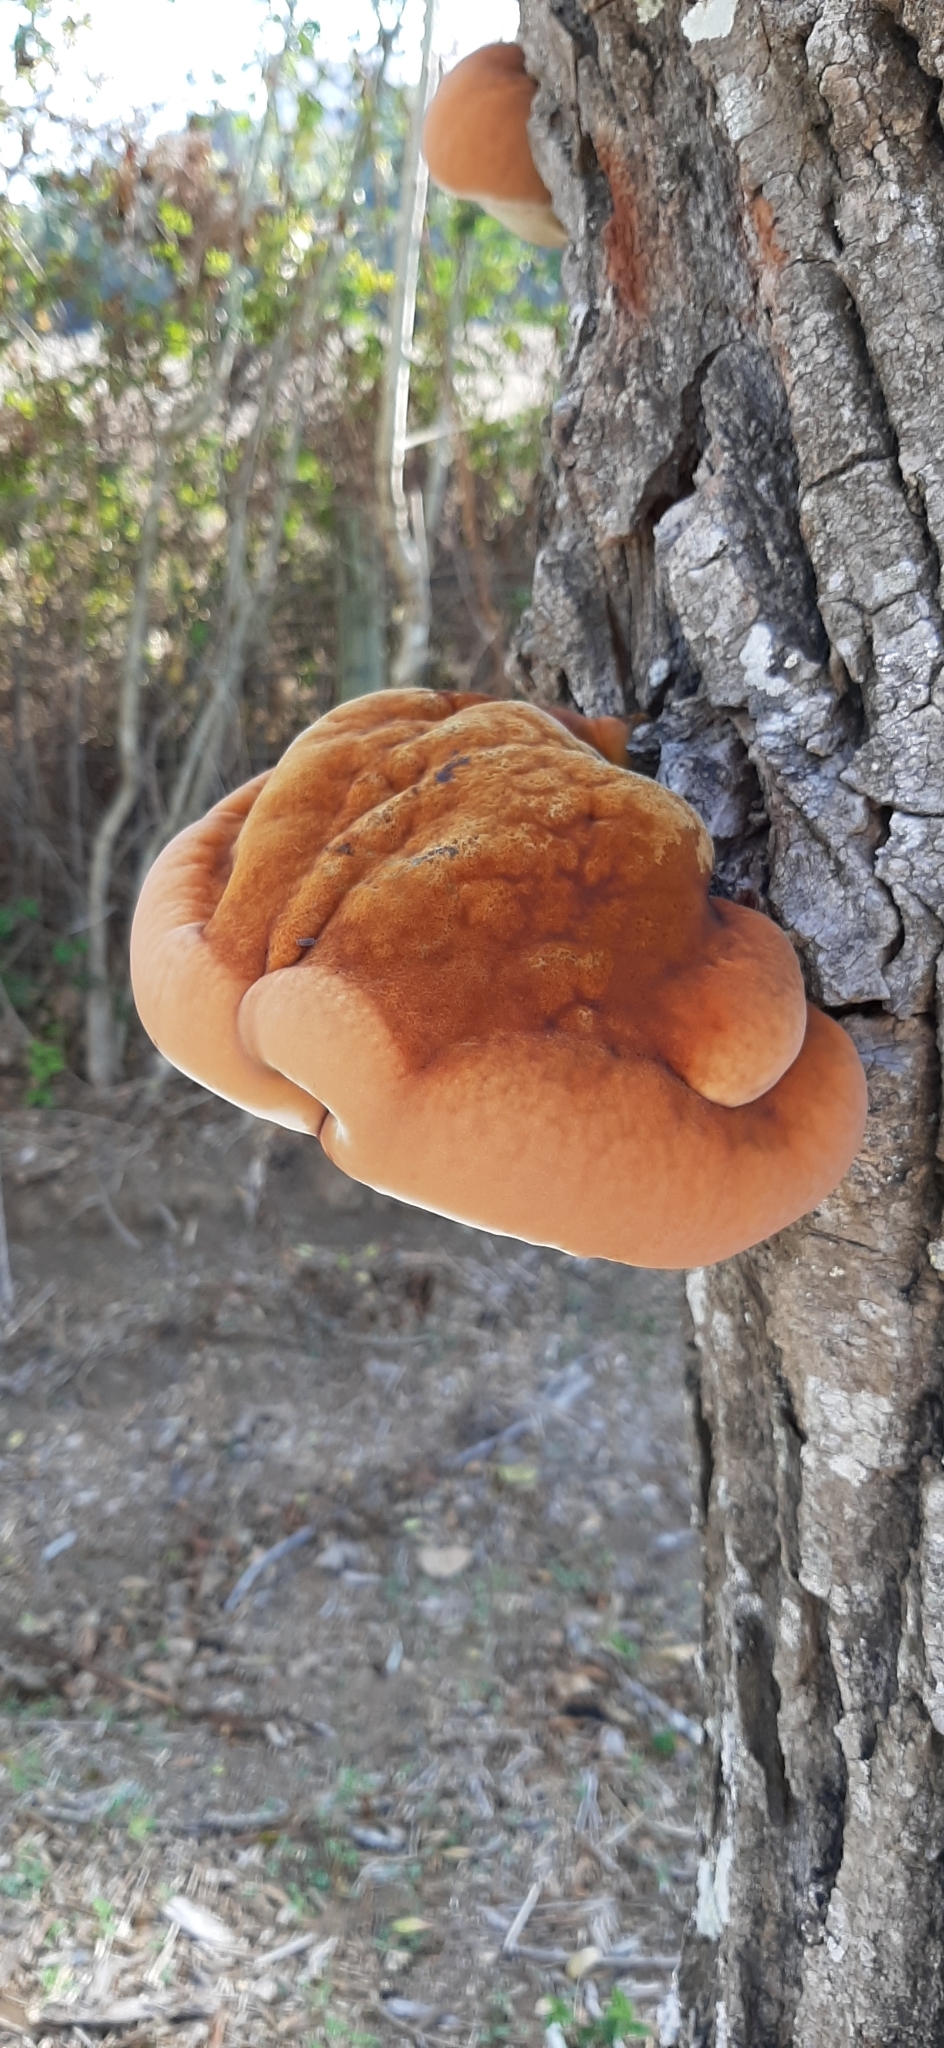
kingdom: Fungi
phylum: Basidiomycota
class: Agaricomycetes
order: Hymenochaetales
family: Hymenochaetaceae
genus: Inonotus
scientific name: Inonotus hispidus
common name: Shaggy bracket
